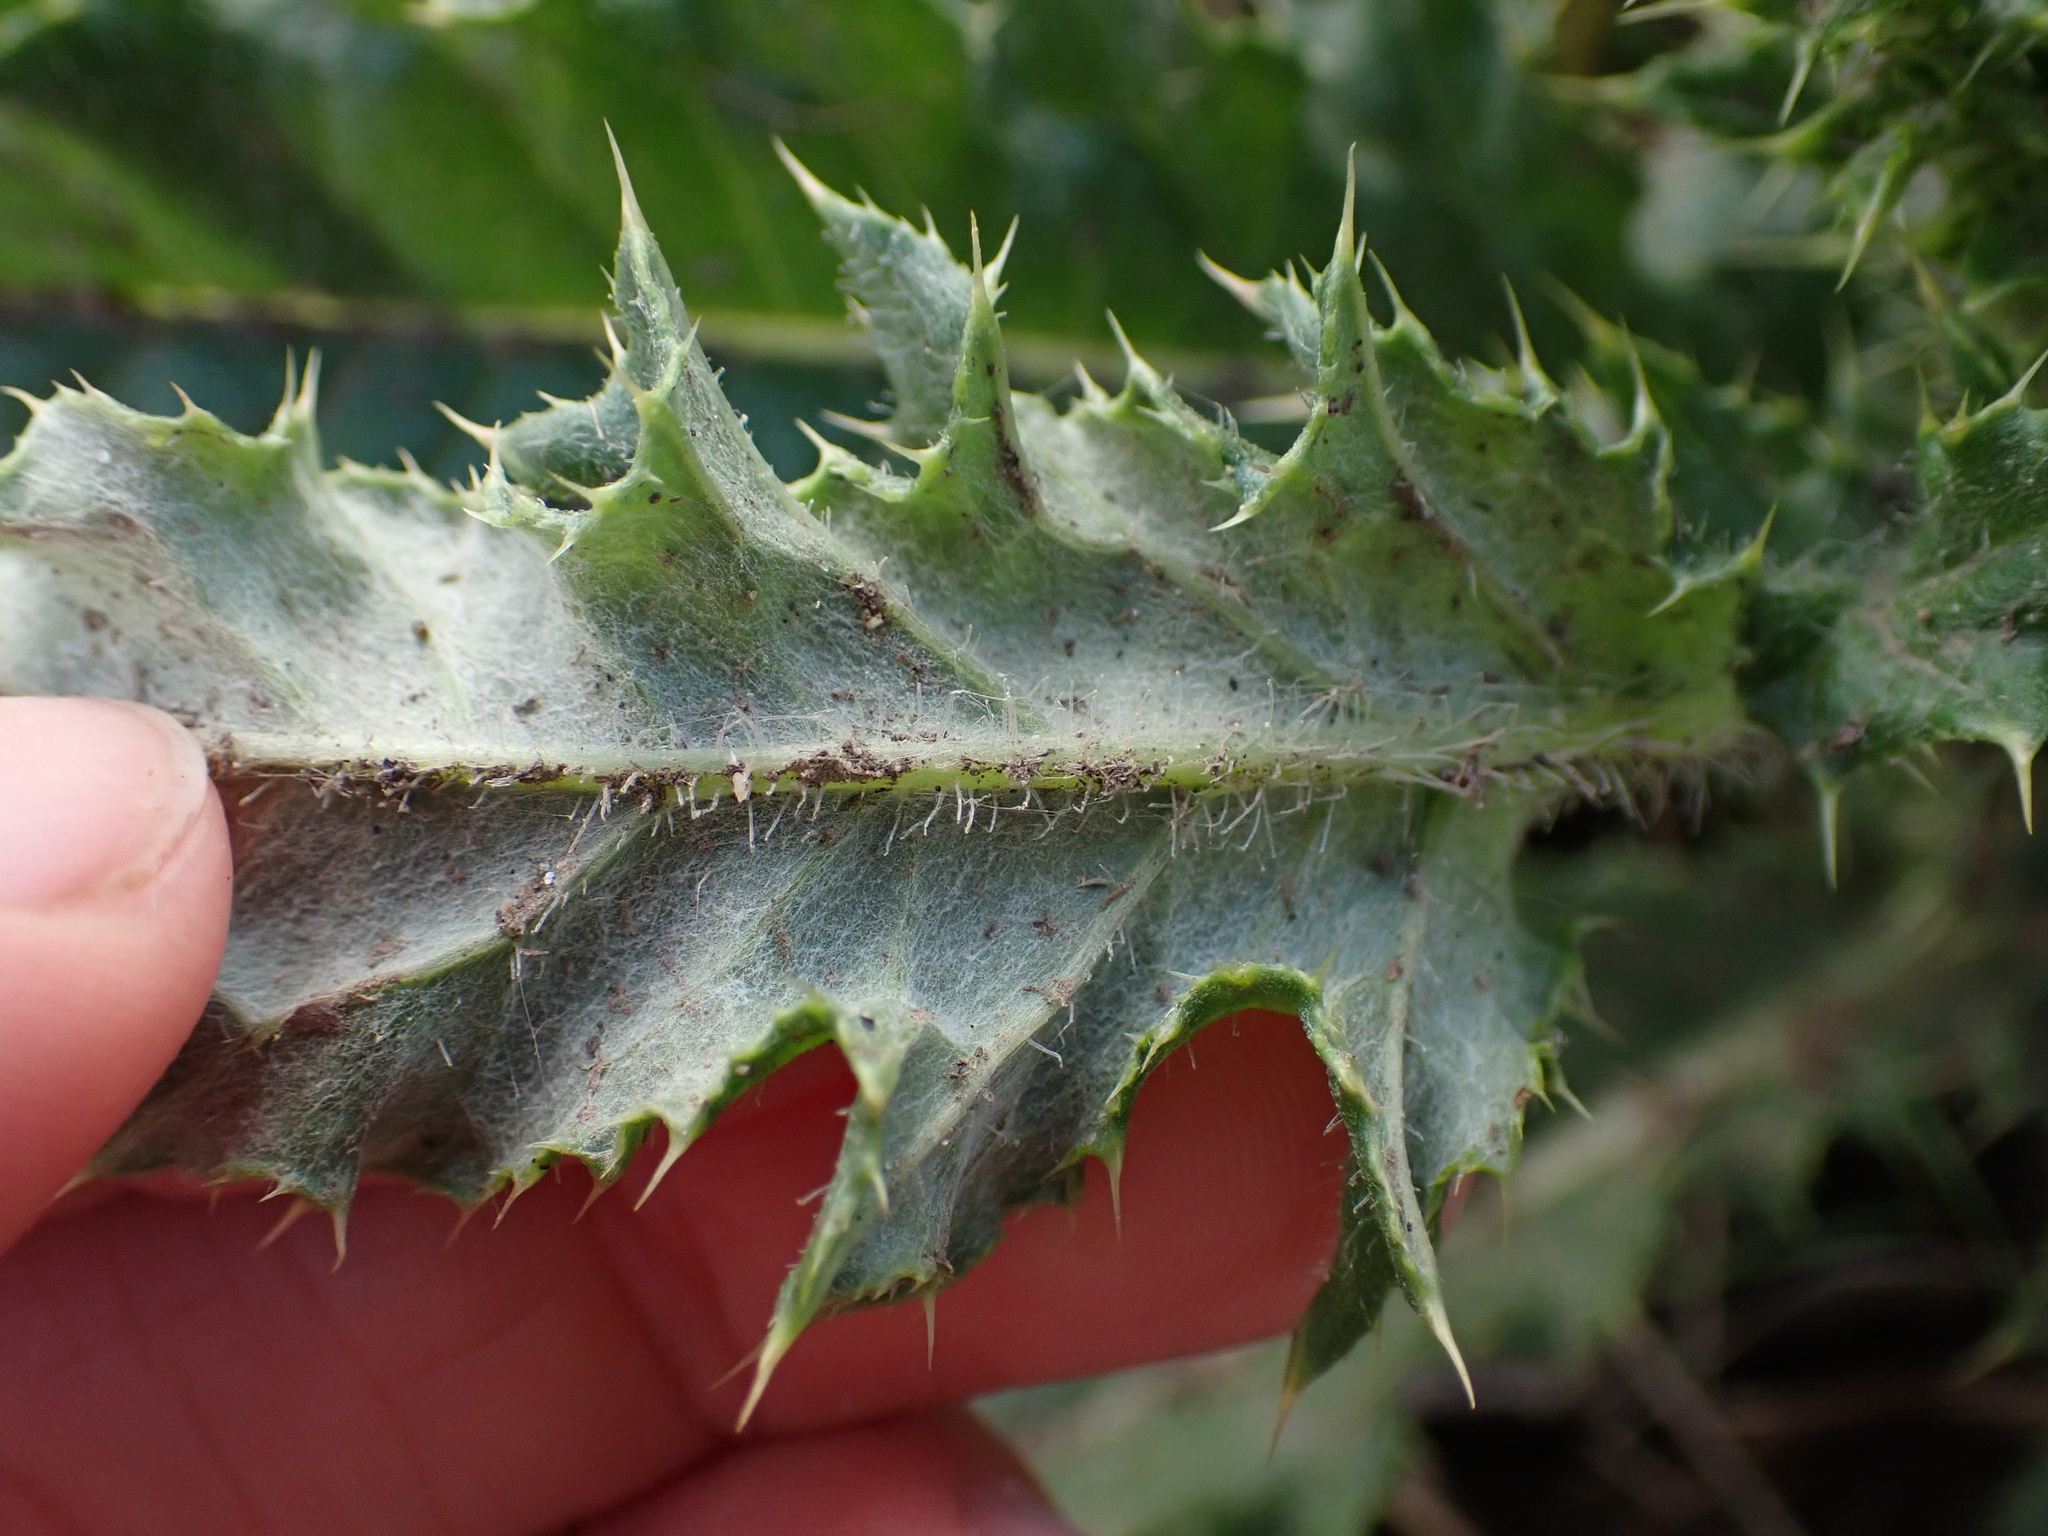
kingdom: Plantae
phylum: Tracheophyta
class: Magnoliopsida
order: Asterales
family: Asteraceae
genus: Cirsium
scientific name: Cirsium arvense
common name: Creeping thistle
